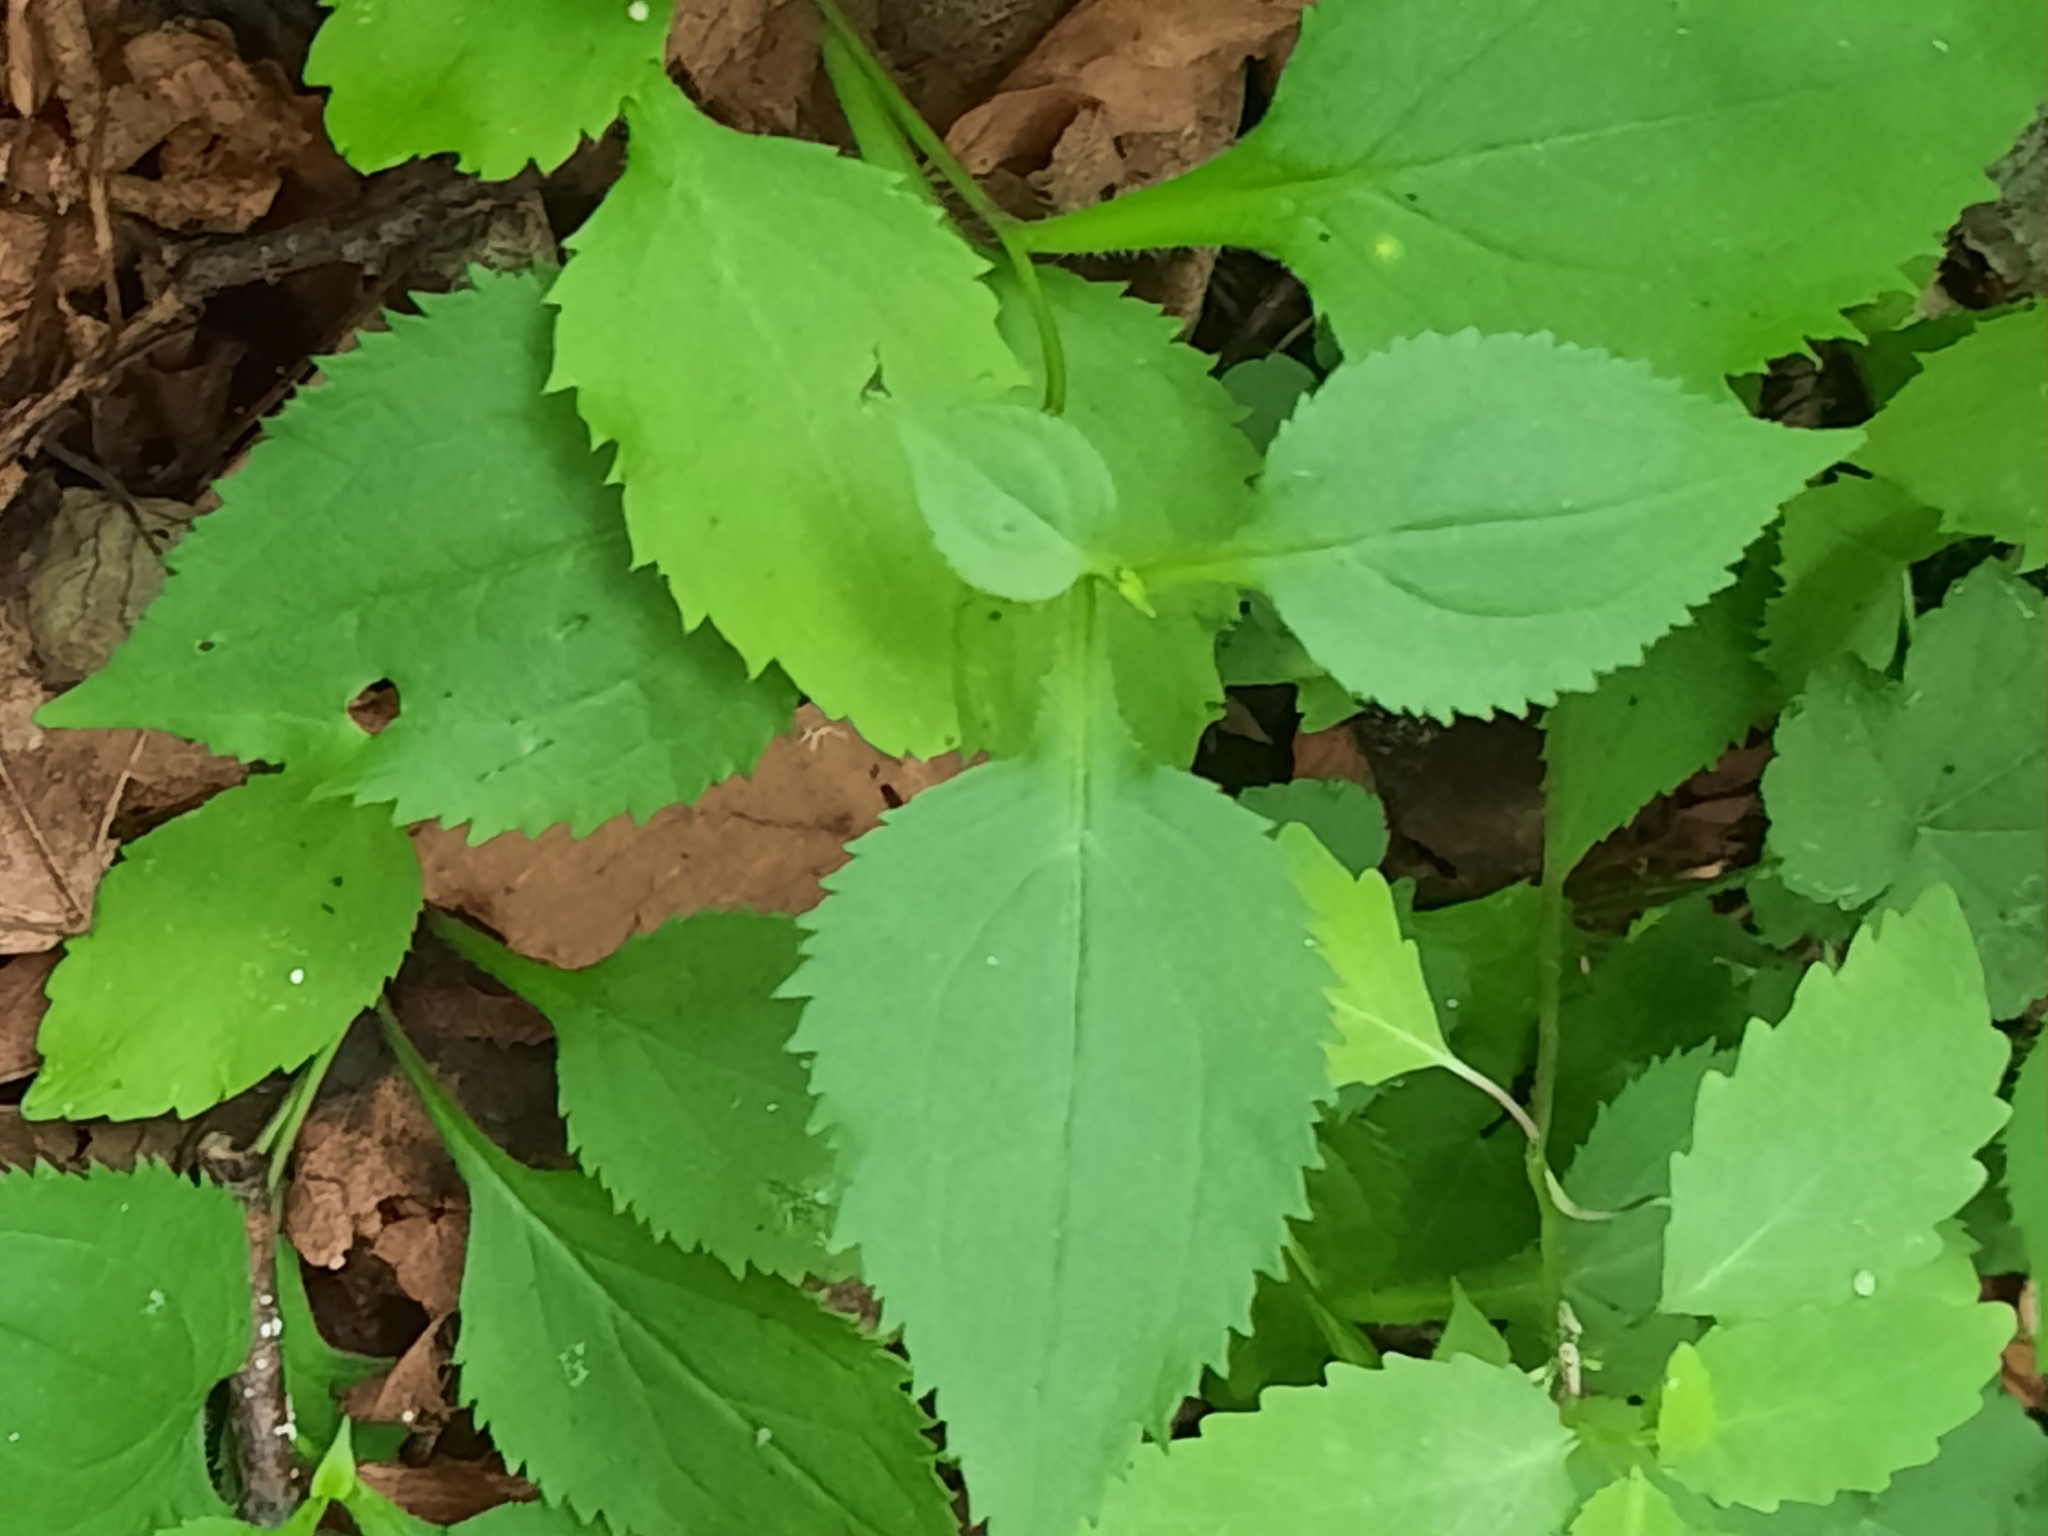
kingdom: Plantae
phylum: Tracheophyta
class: Magnoliopsida
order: Asterales
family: Asteraceae
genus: Solidago
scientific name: Solidago flexicaulis
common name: Zig-zag goldenrod
